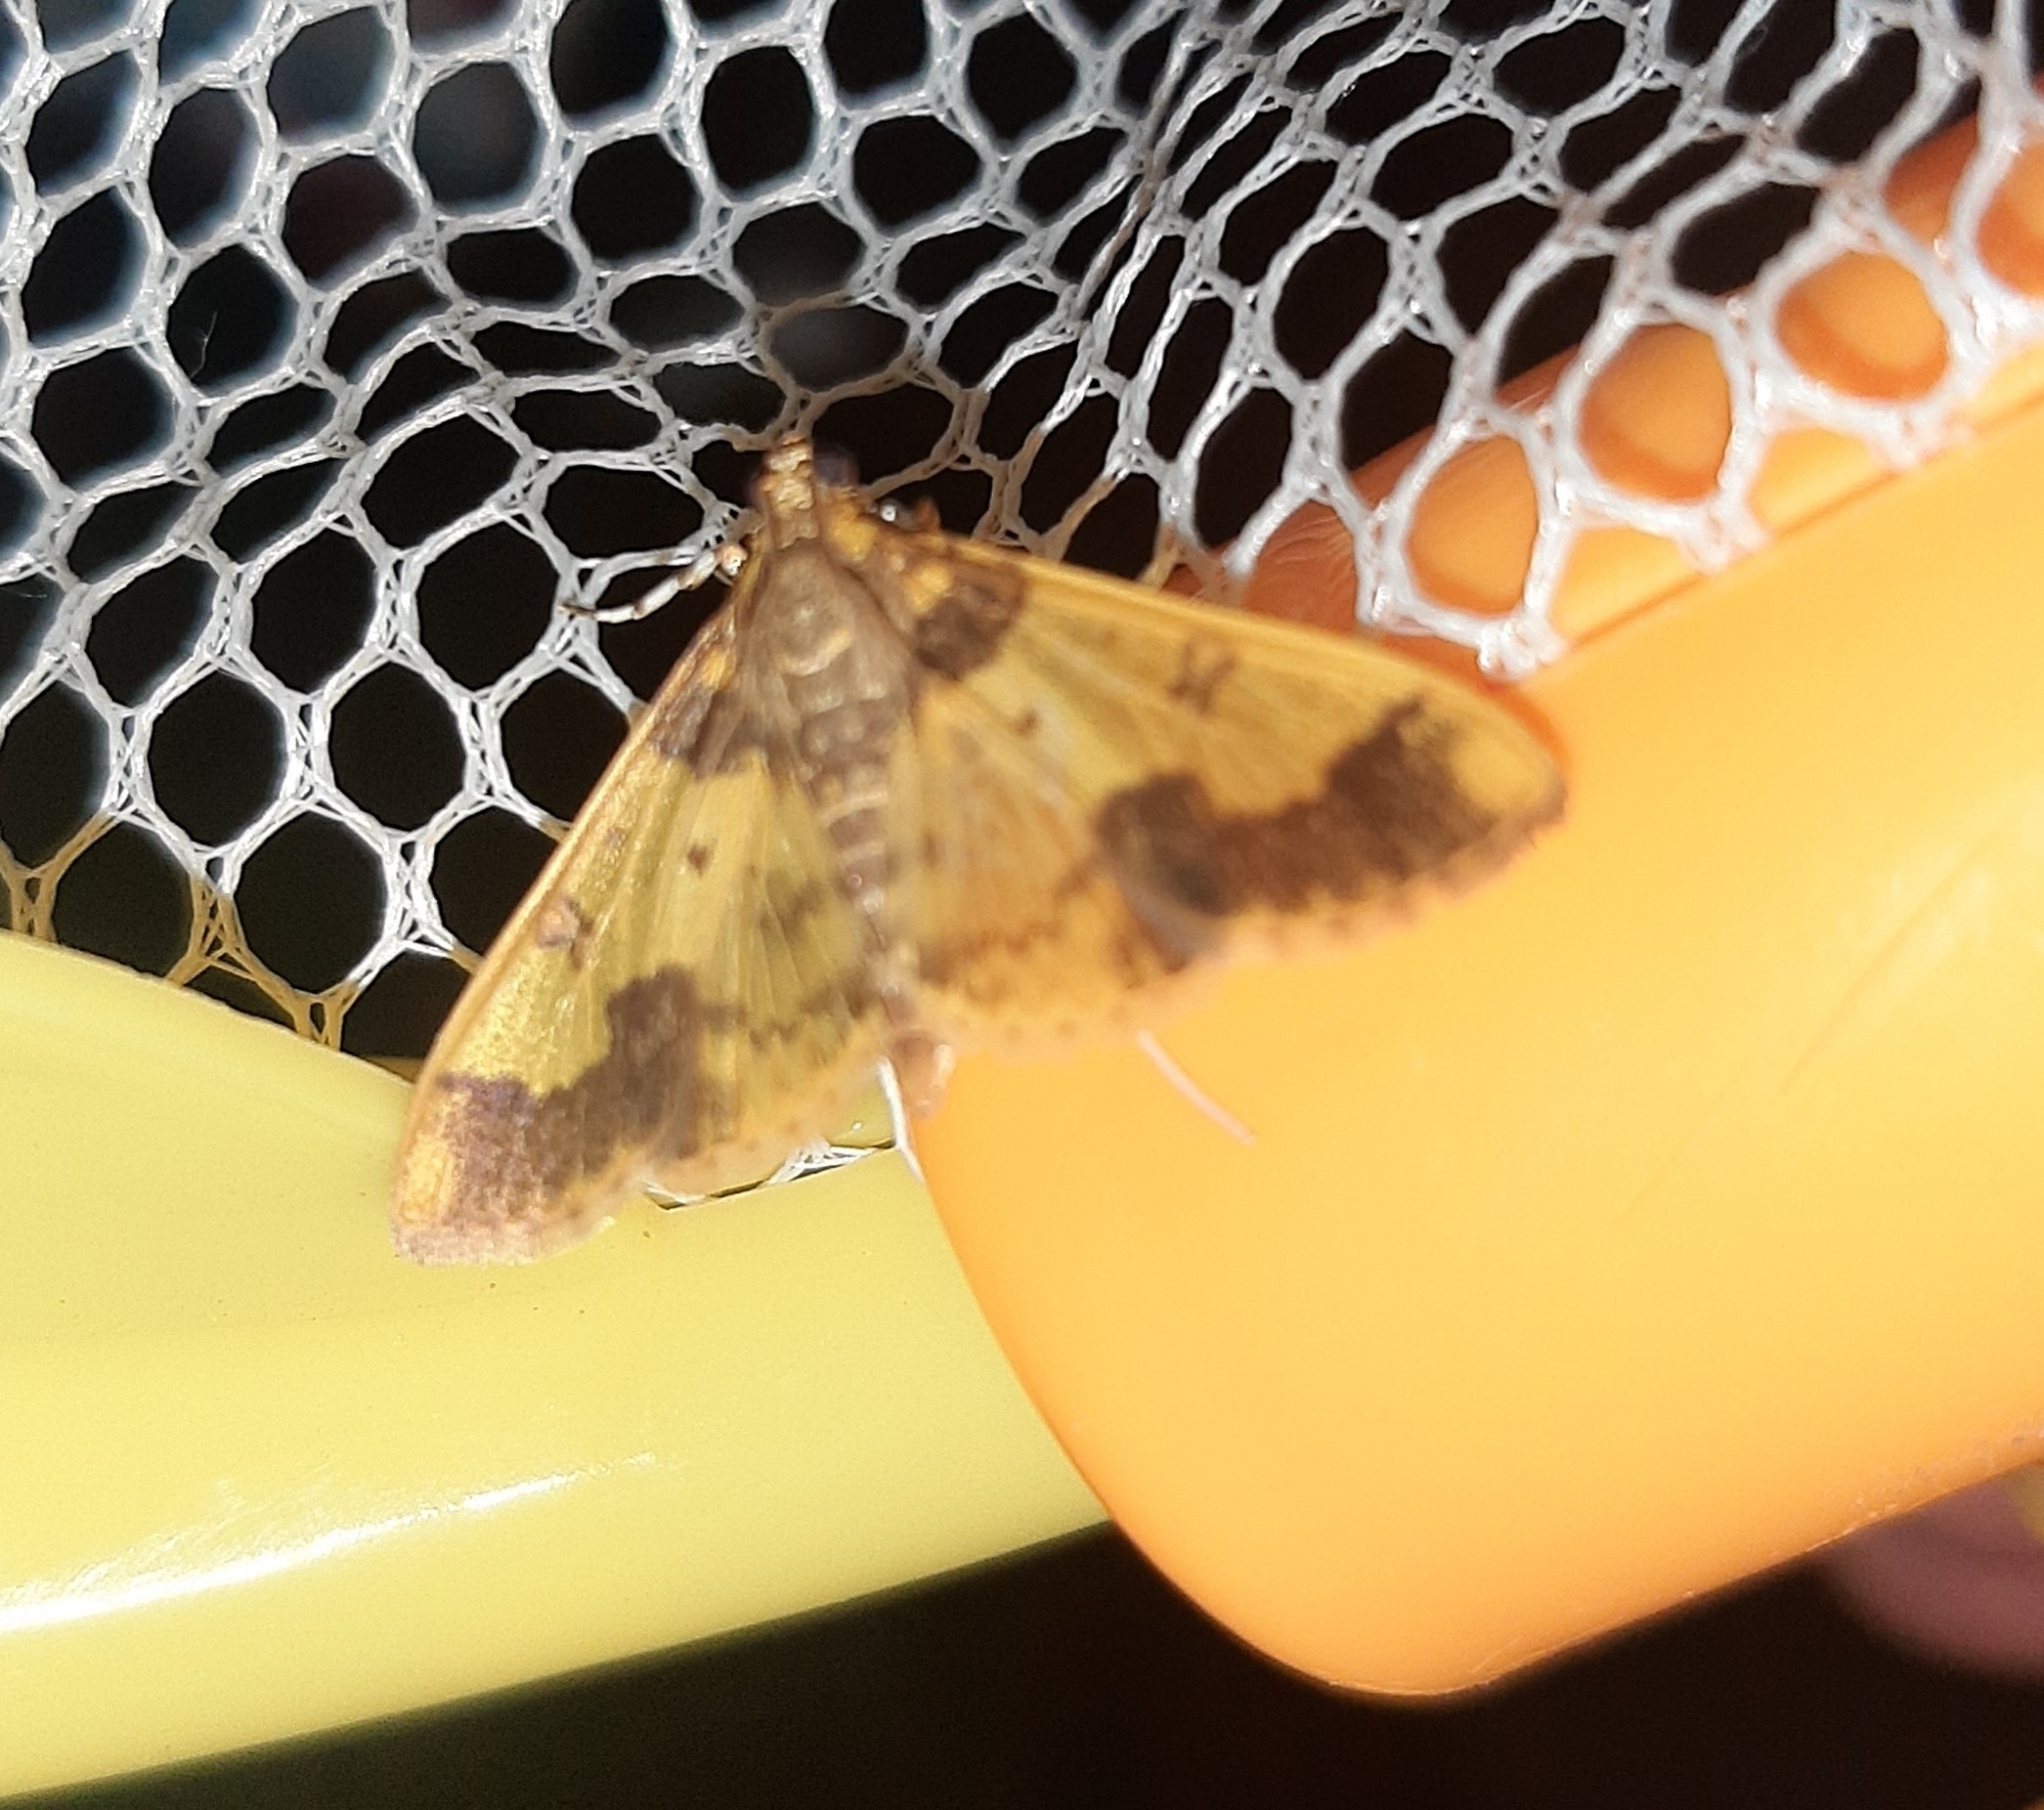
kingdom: Animalia
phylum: Arthropoda
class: Insecta
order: Lepidoptera
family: Crambidae
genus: Syllepte
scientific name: Syllepte pactolalis
